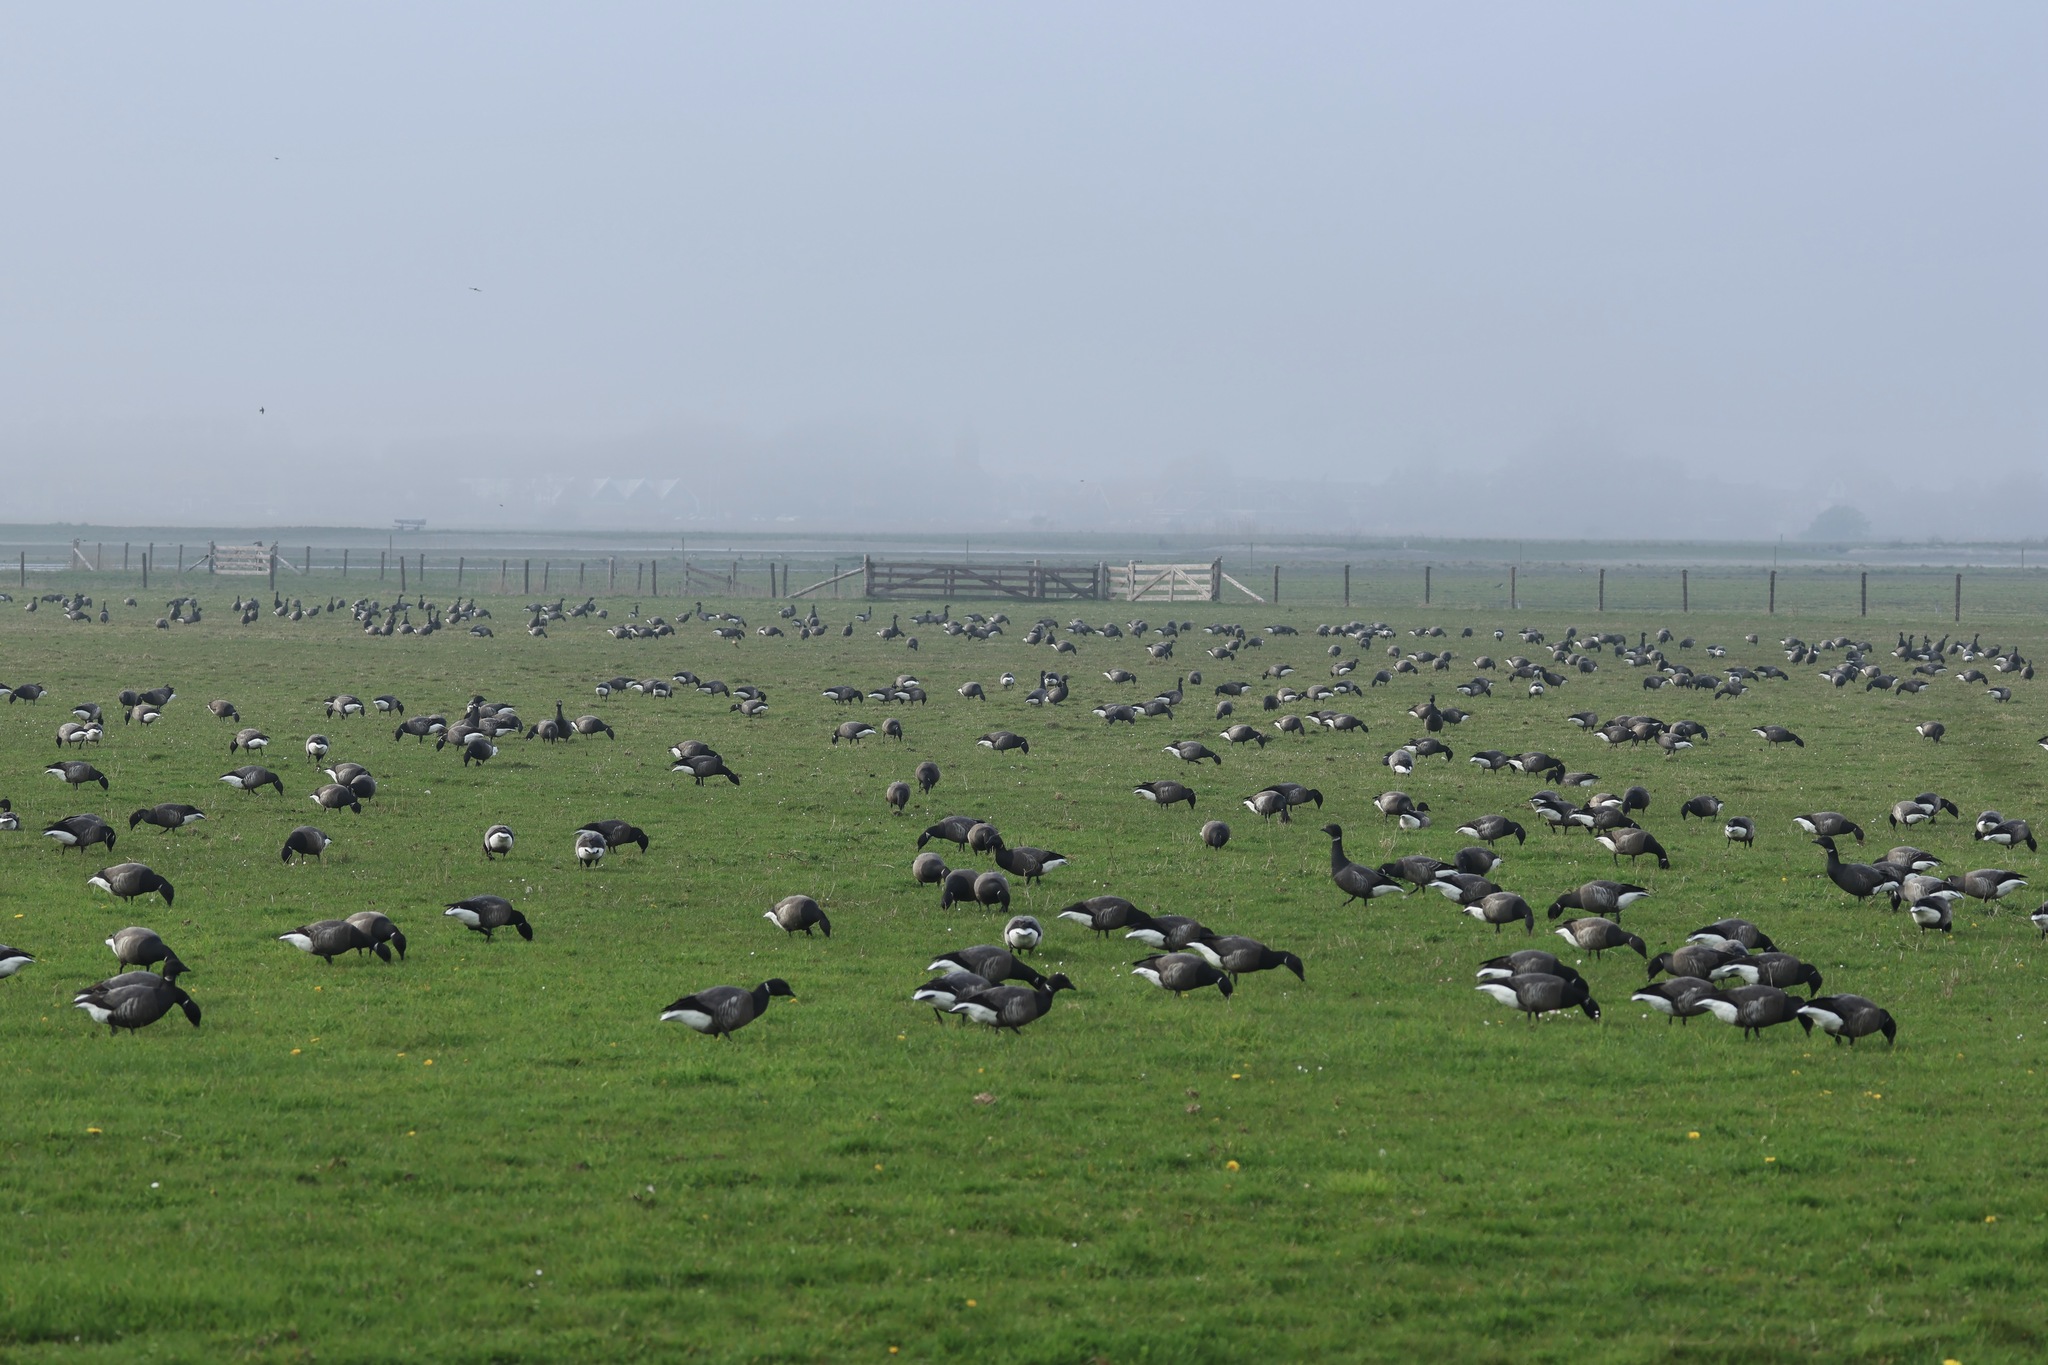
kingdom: Animalia
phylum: Chordata
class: Aves
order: Anseriformes
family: Anatidae
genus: Branta
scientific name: Branta bernicla
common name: Brant goose
